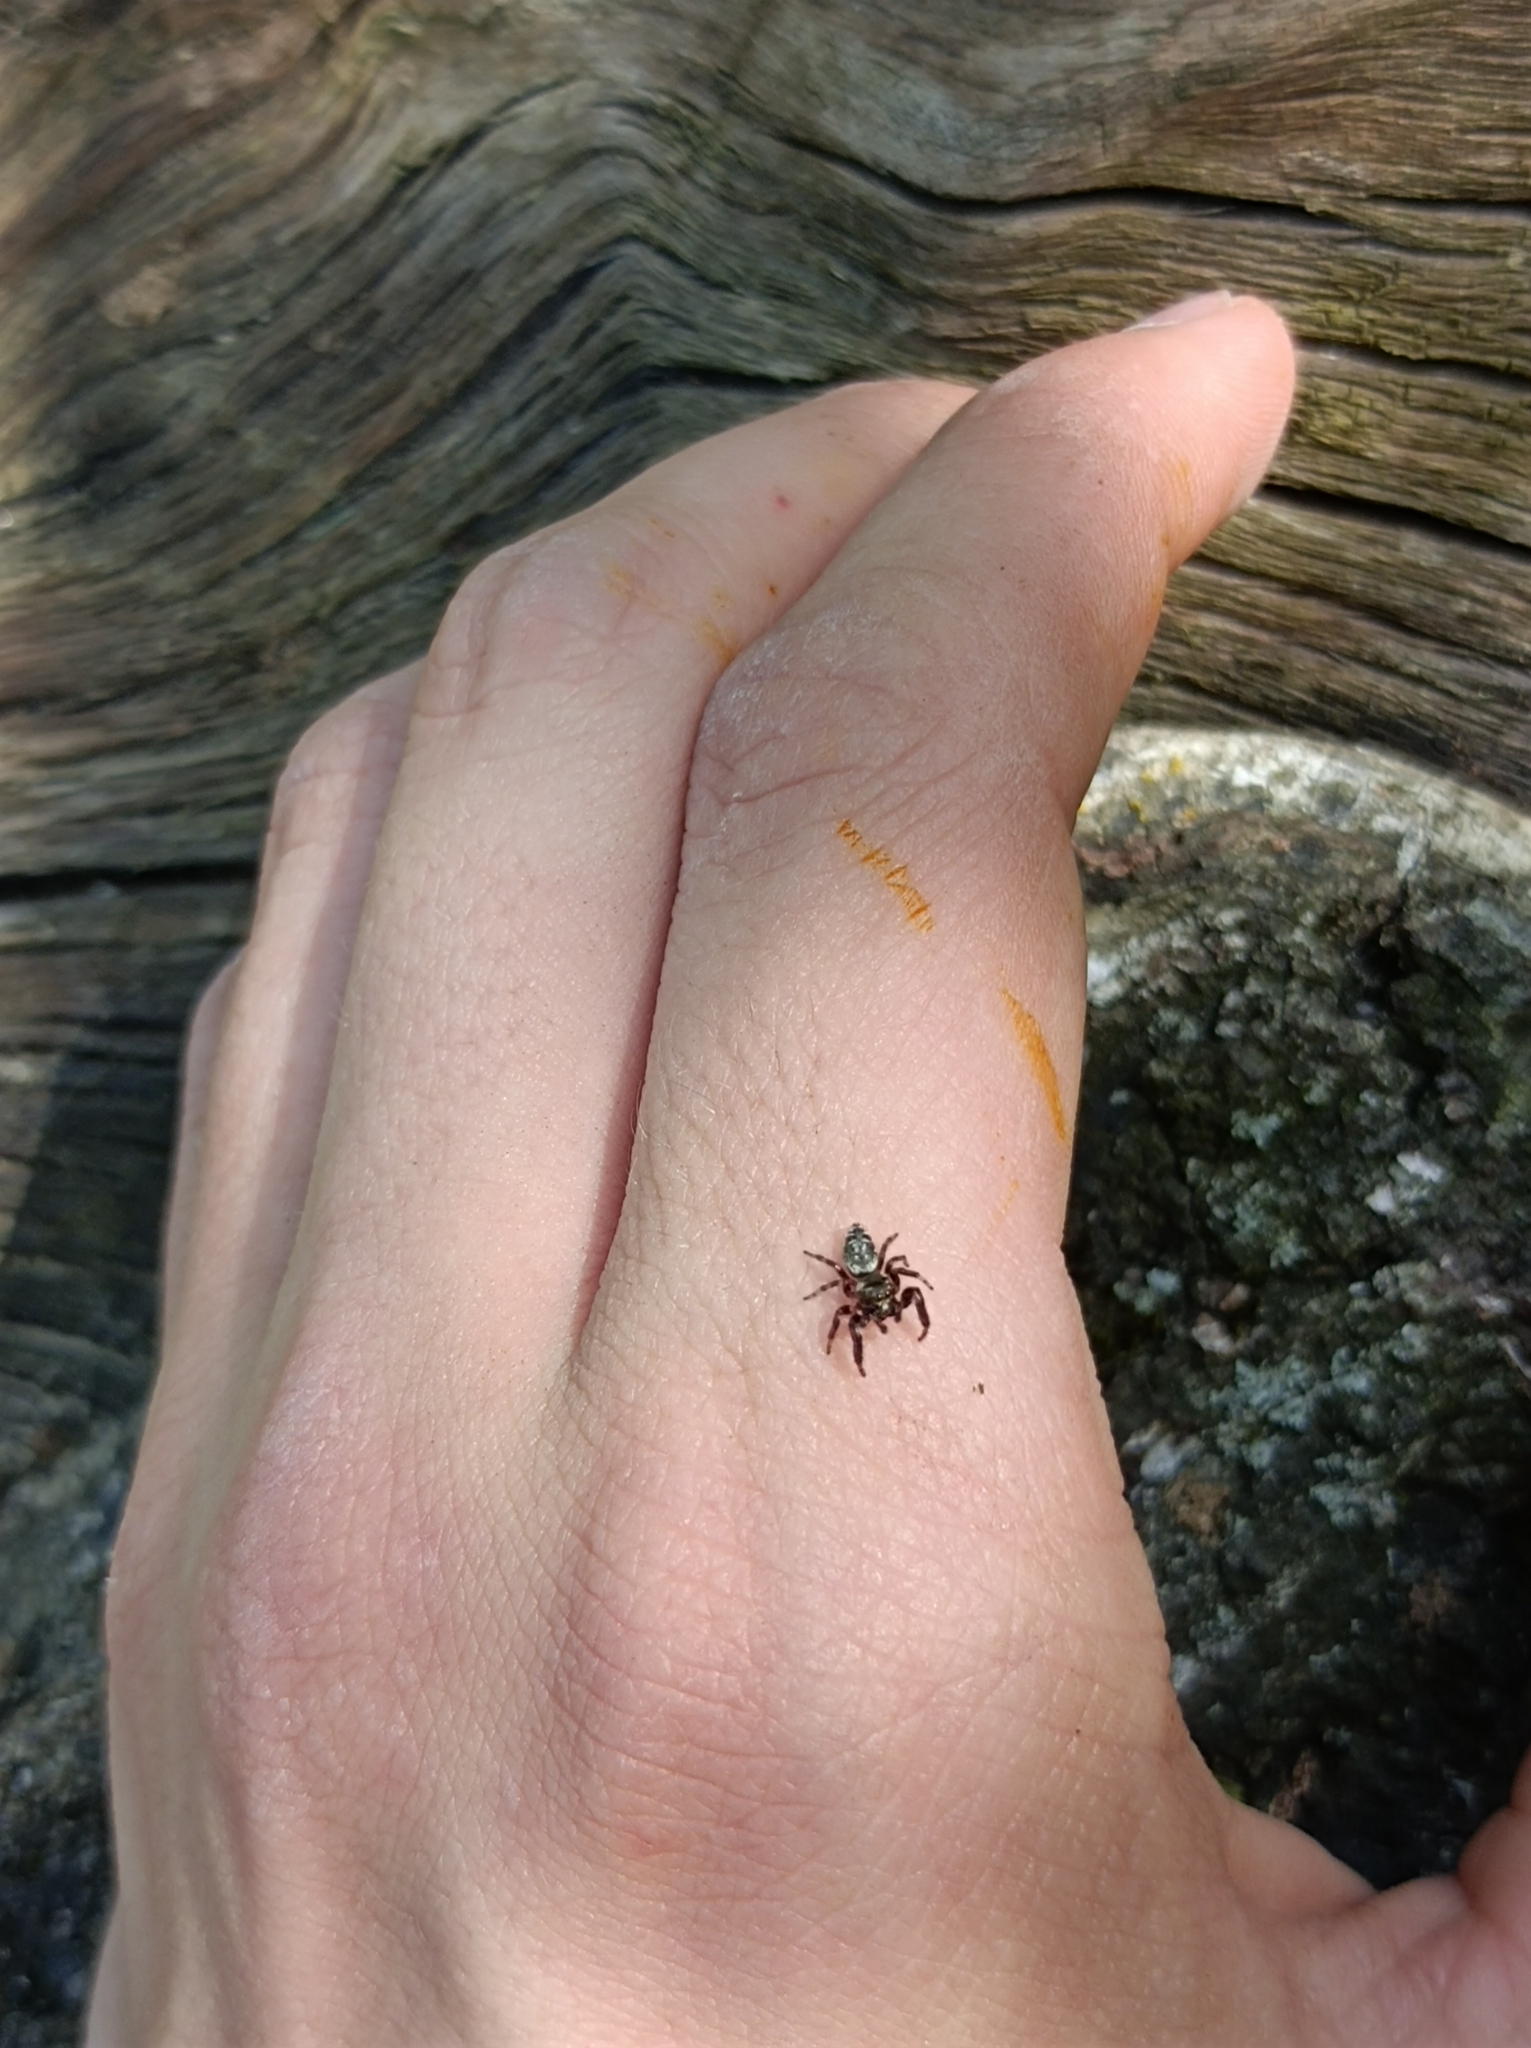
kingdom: Animalia
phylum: Arthropoda
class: Arachnida
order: Araneae
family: Salticidae
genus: Macaroeris
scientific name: Macaroeris nidicolens
